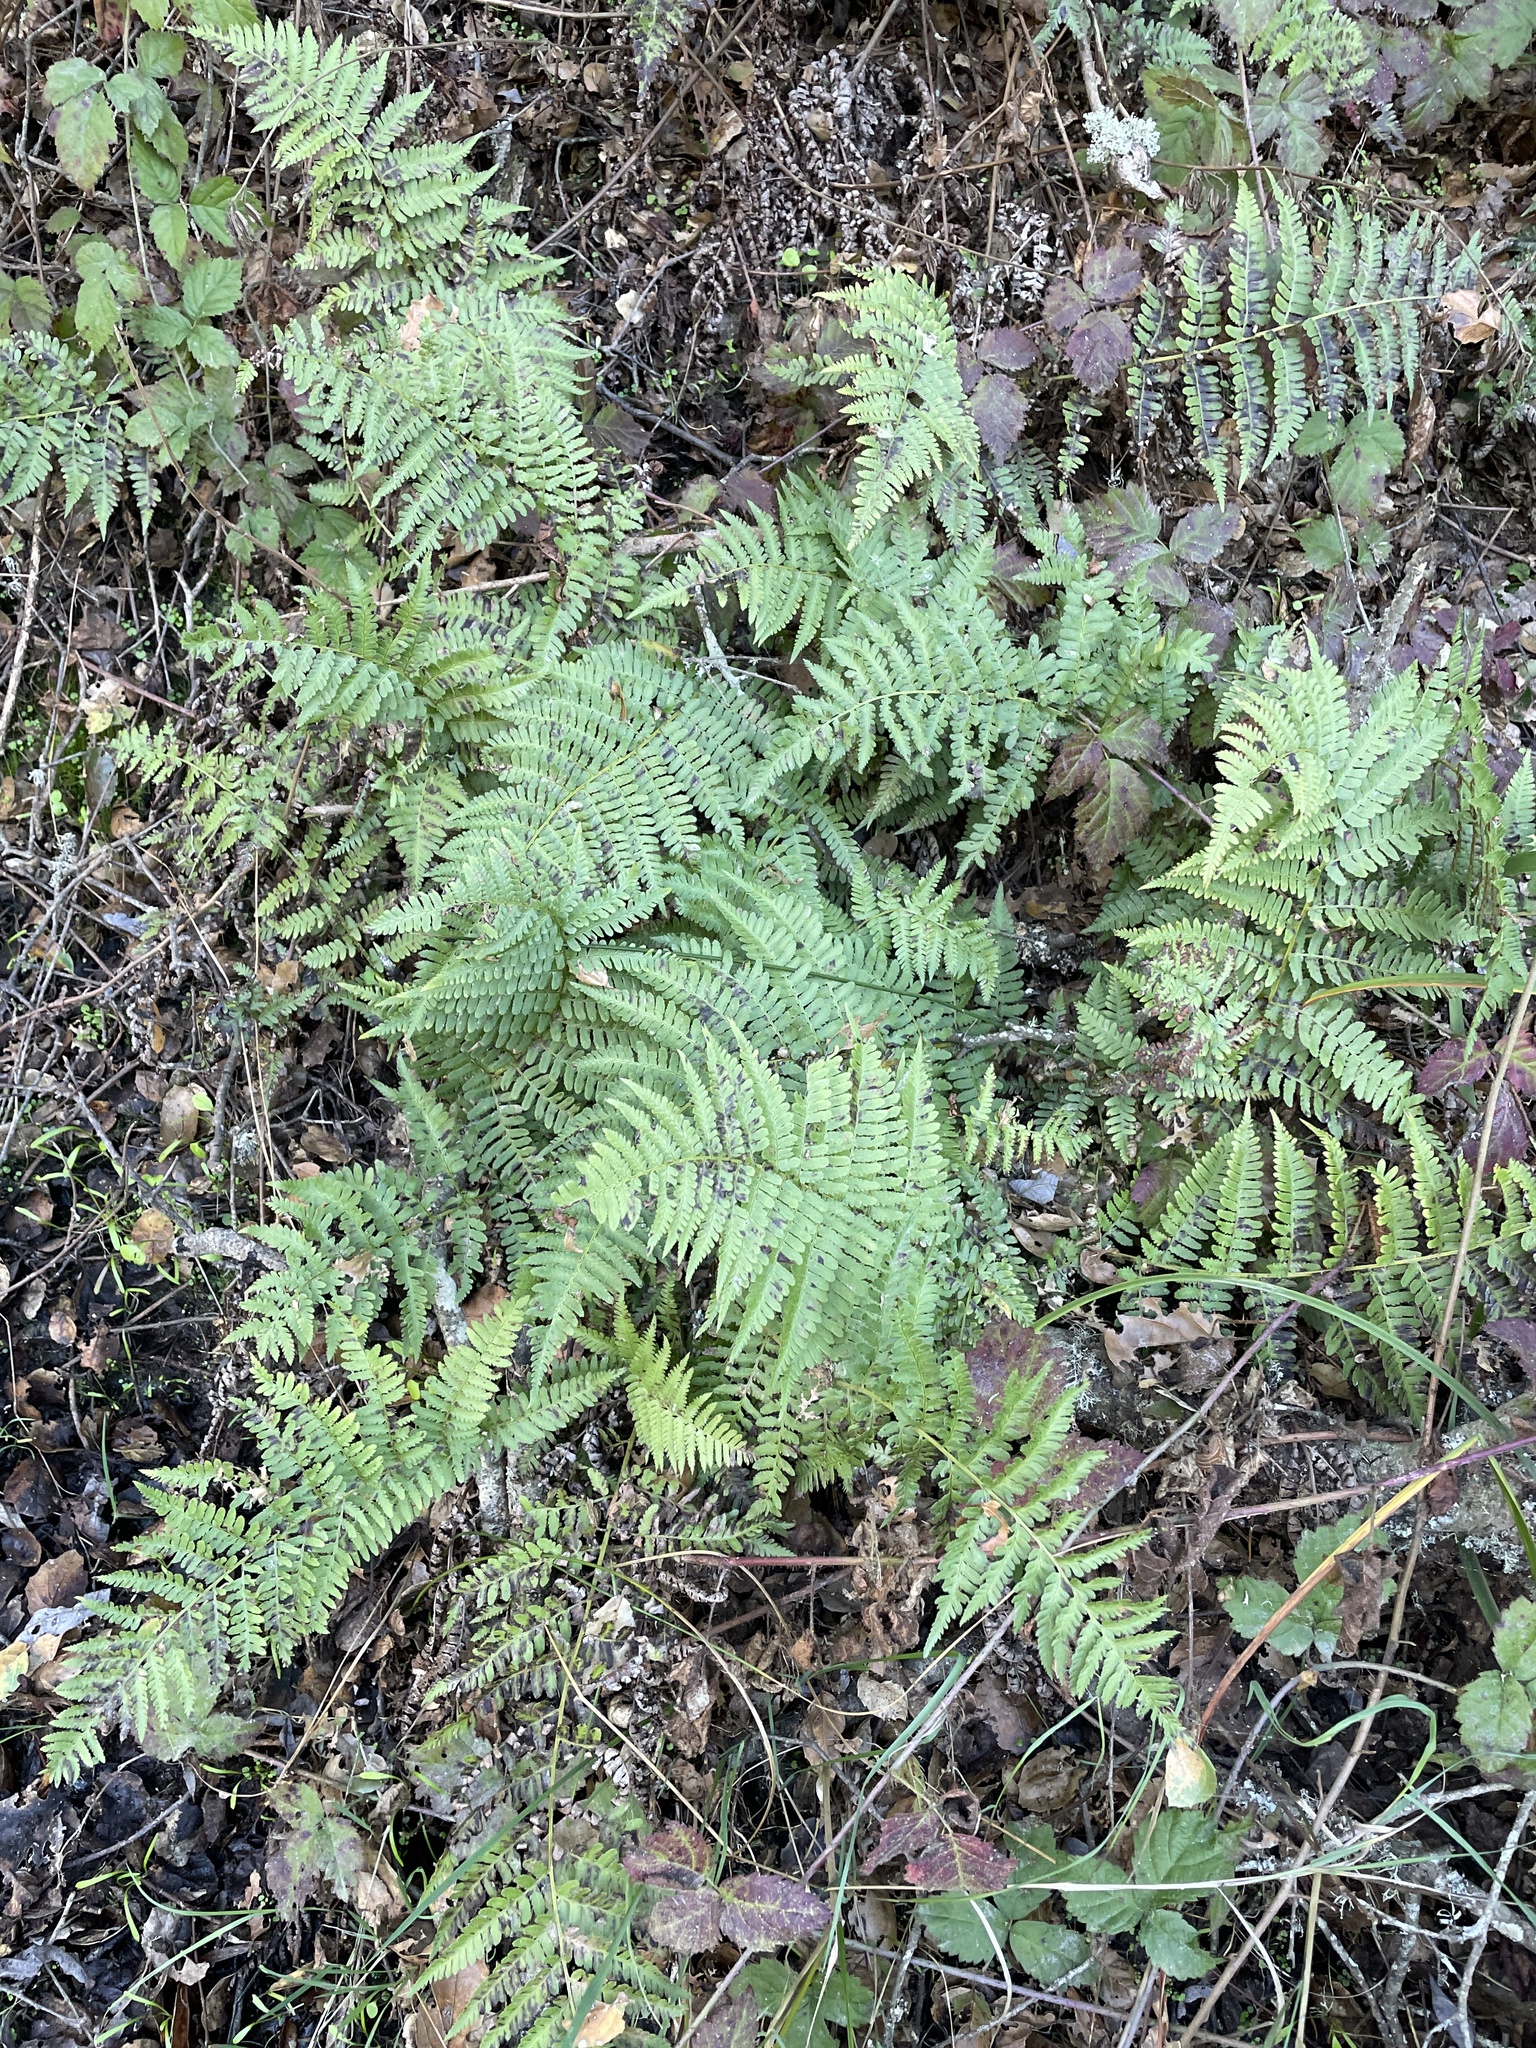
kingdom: Plantae
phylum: Tracheophyta
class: Polypodiopsida
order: Polypodiales
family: Dryopteridaceae
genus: Dryopteris
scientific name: Dryopteris arguta
